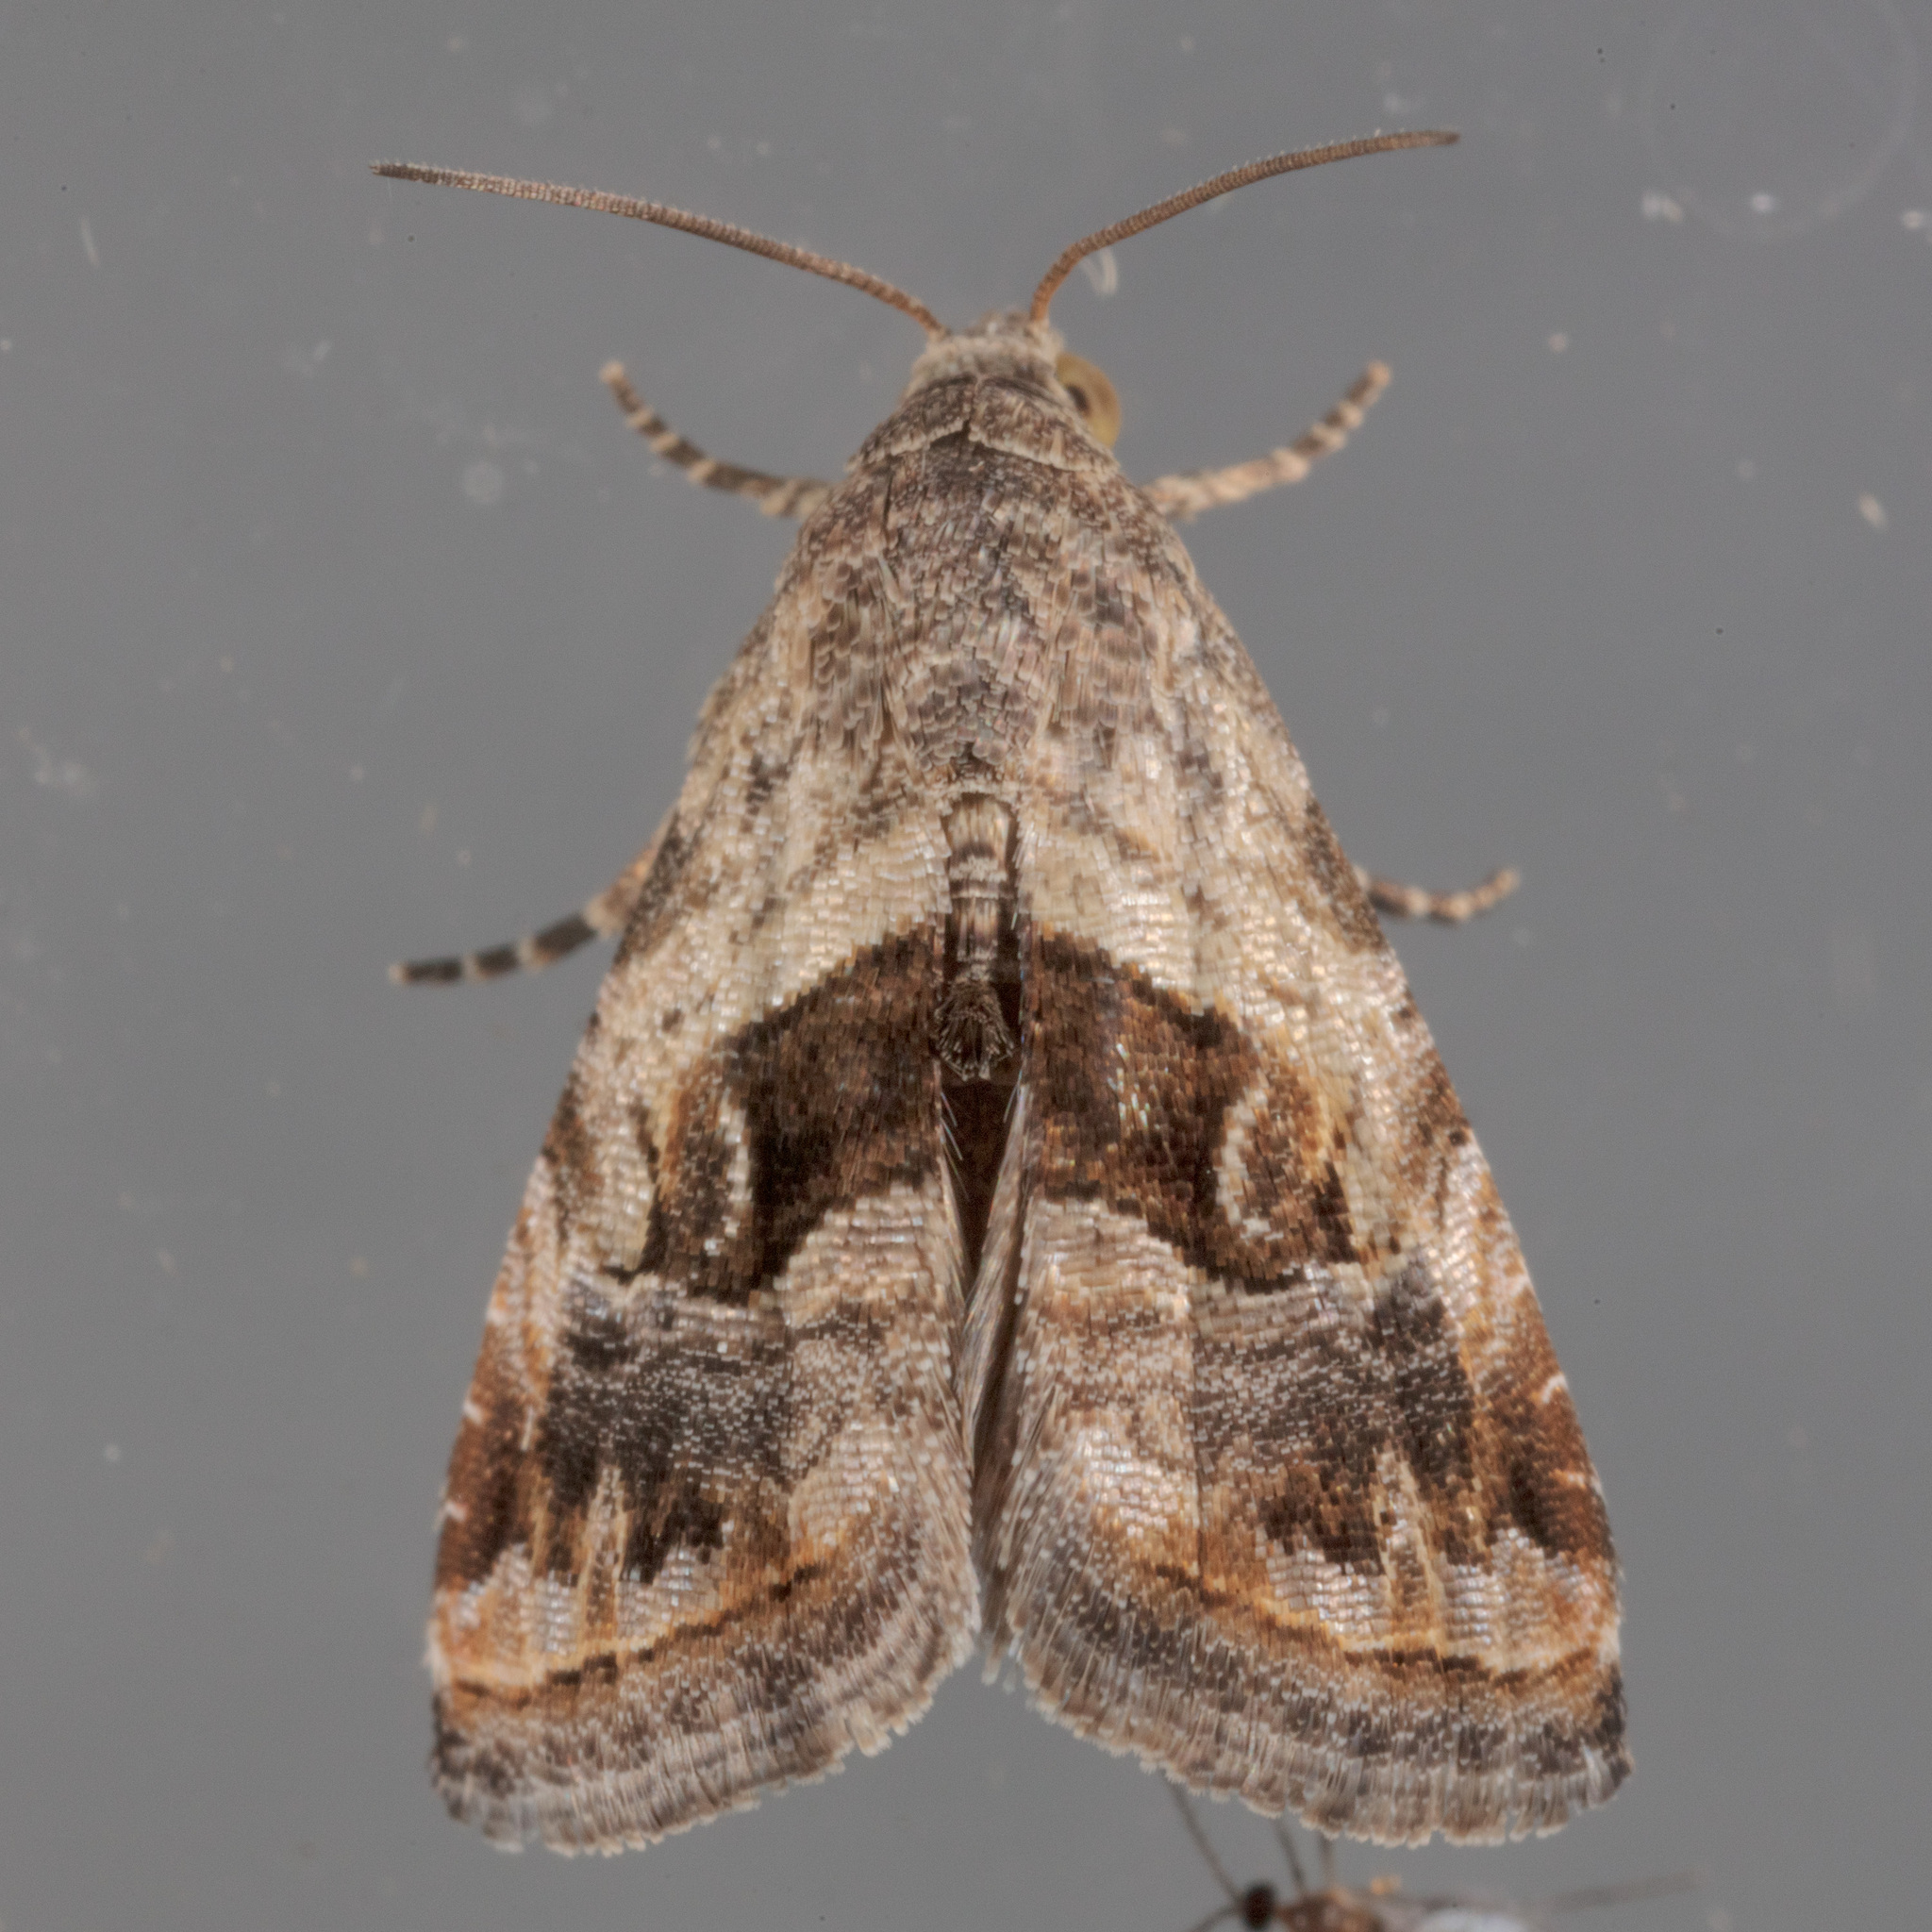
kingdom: Animalia
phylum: Arthropoda
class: Insecta
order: Lepidoptera
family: Noctuidae
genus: Tripudia
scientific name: Tripudia quadrifera
